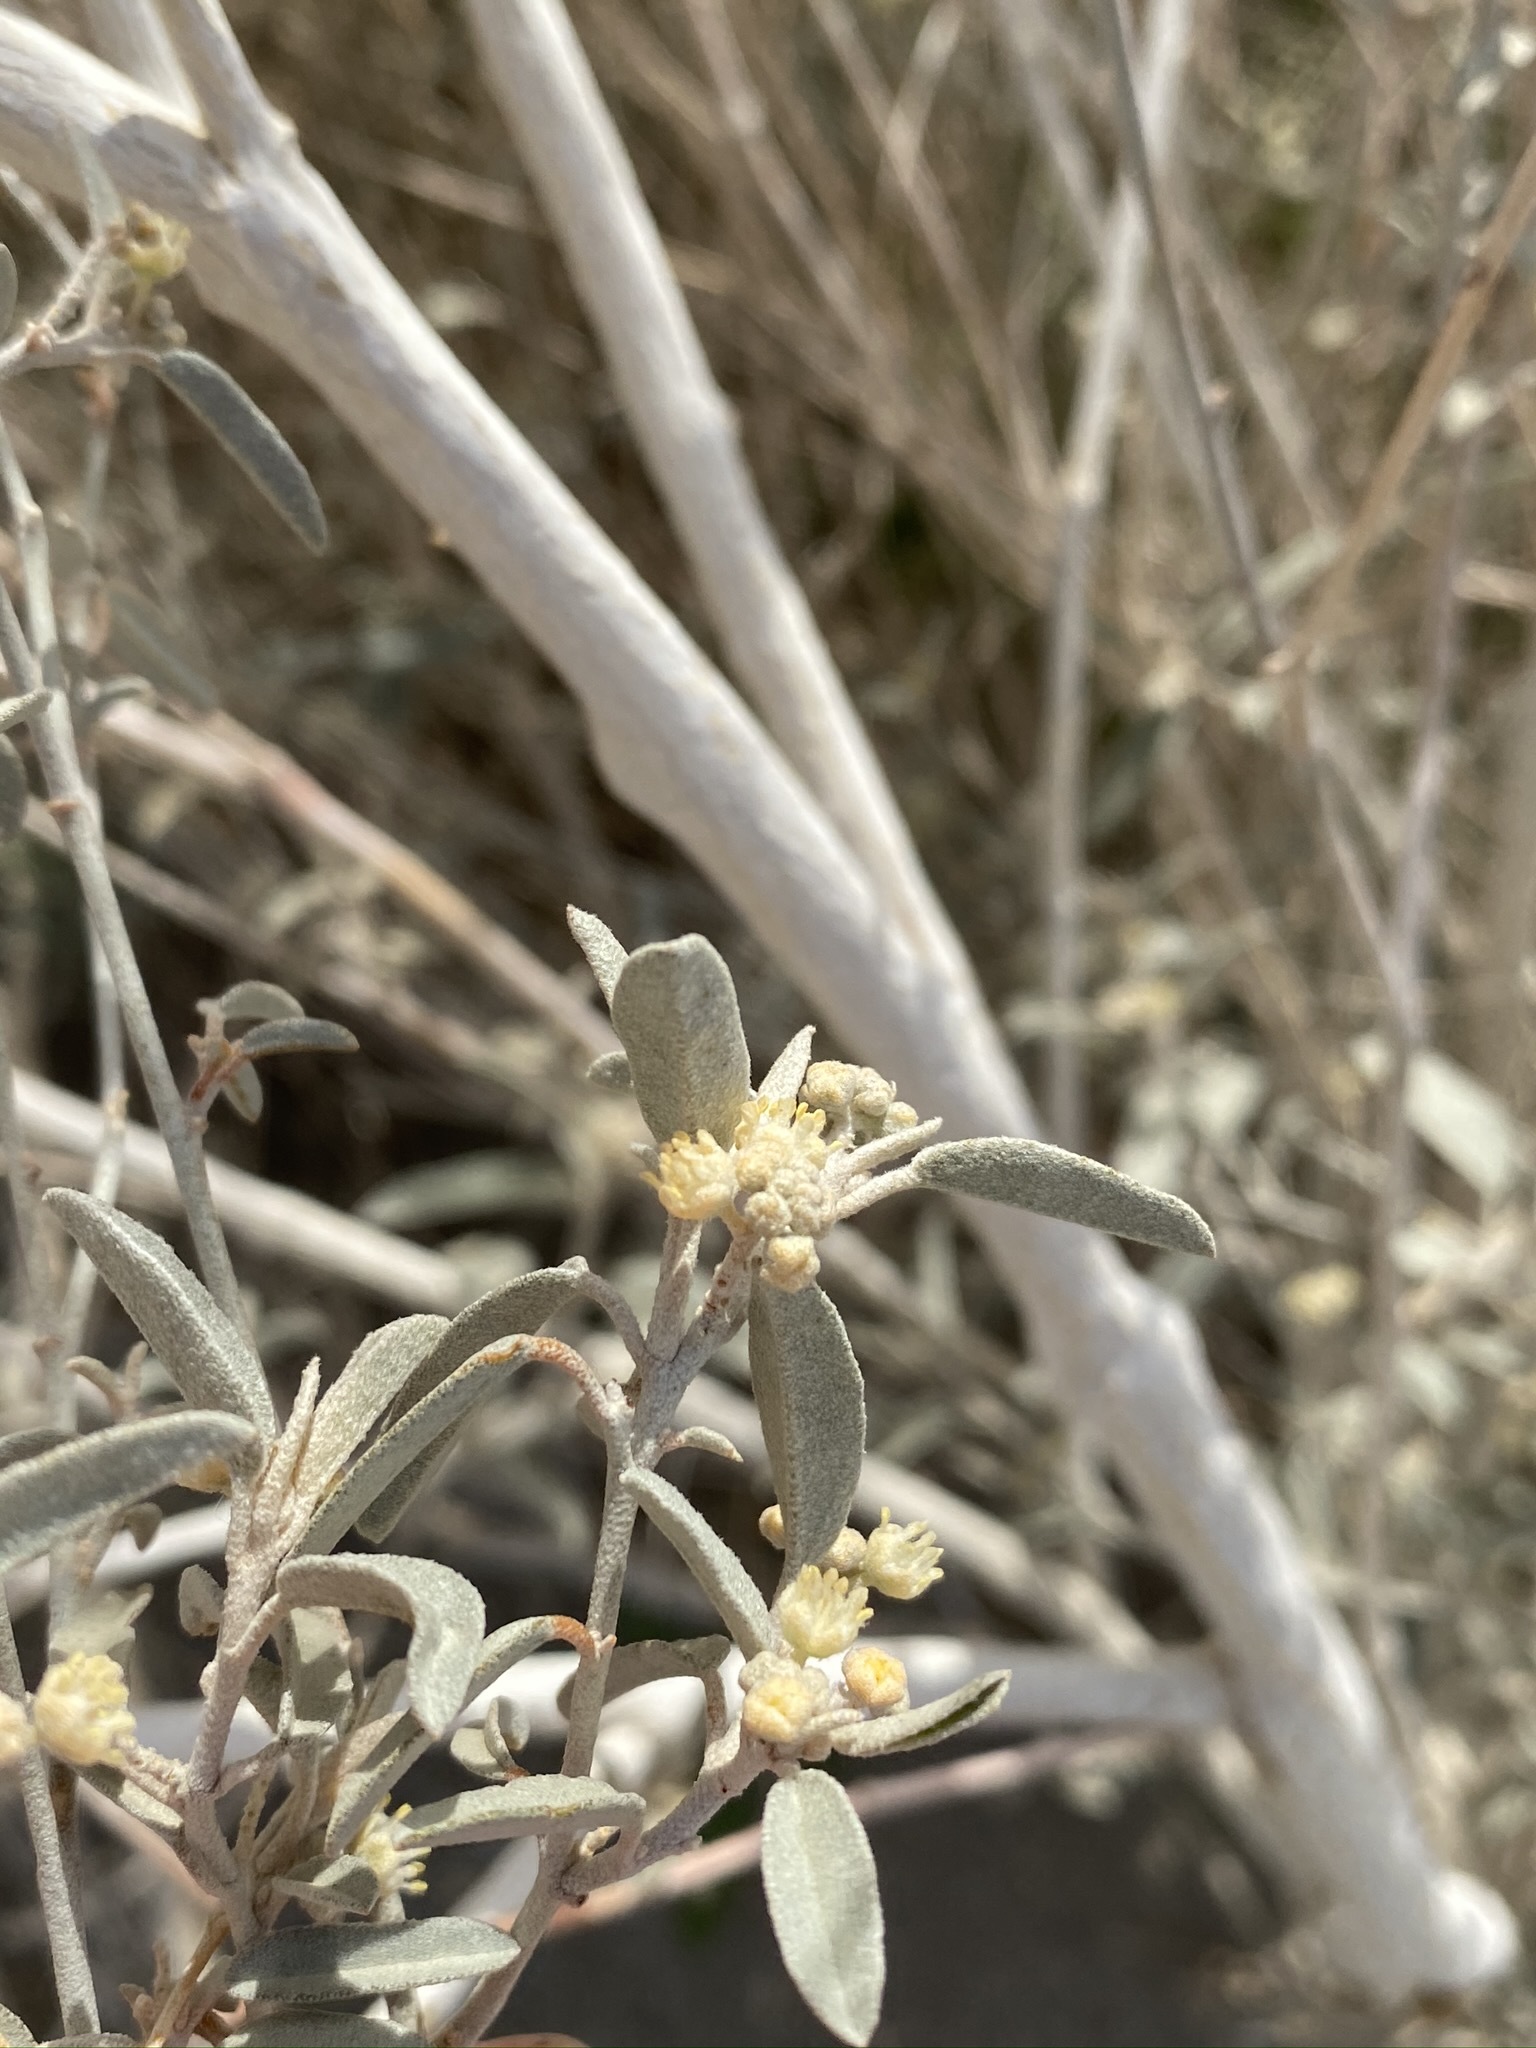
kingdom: Plantae
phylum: Tracheophyta
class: Magnoliopsida
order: Malpighiales
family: Euphorbiaceae
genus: Croton
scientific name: Croton californicus
